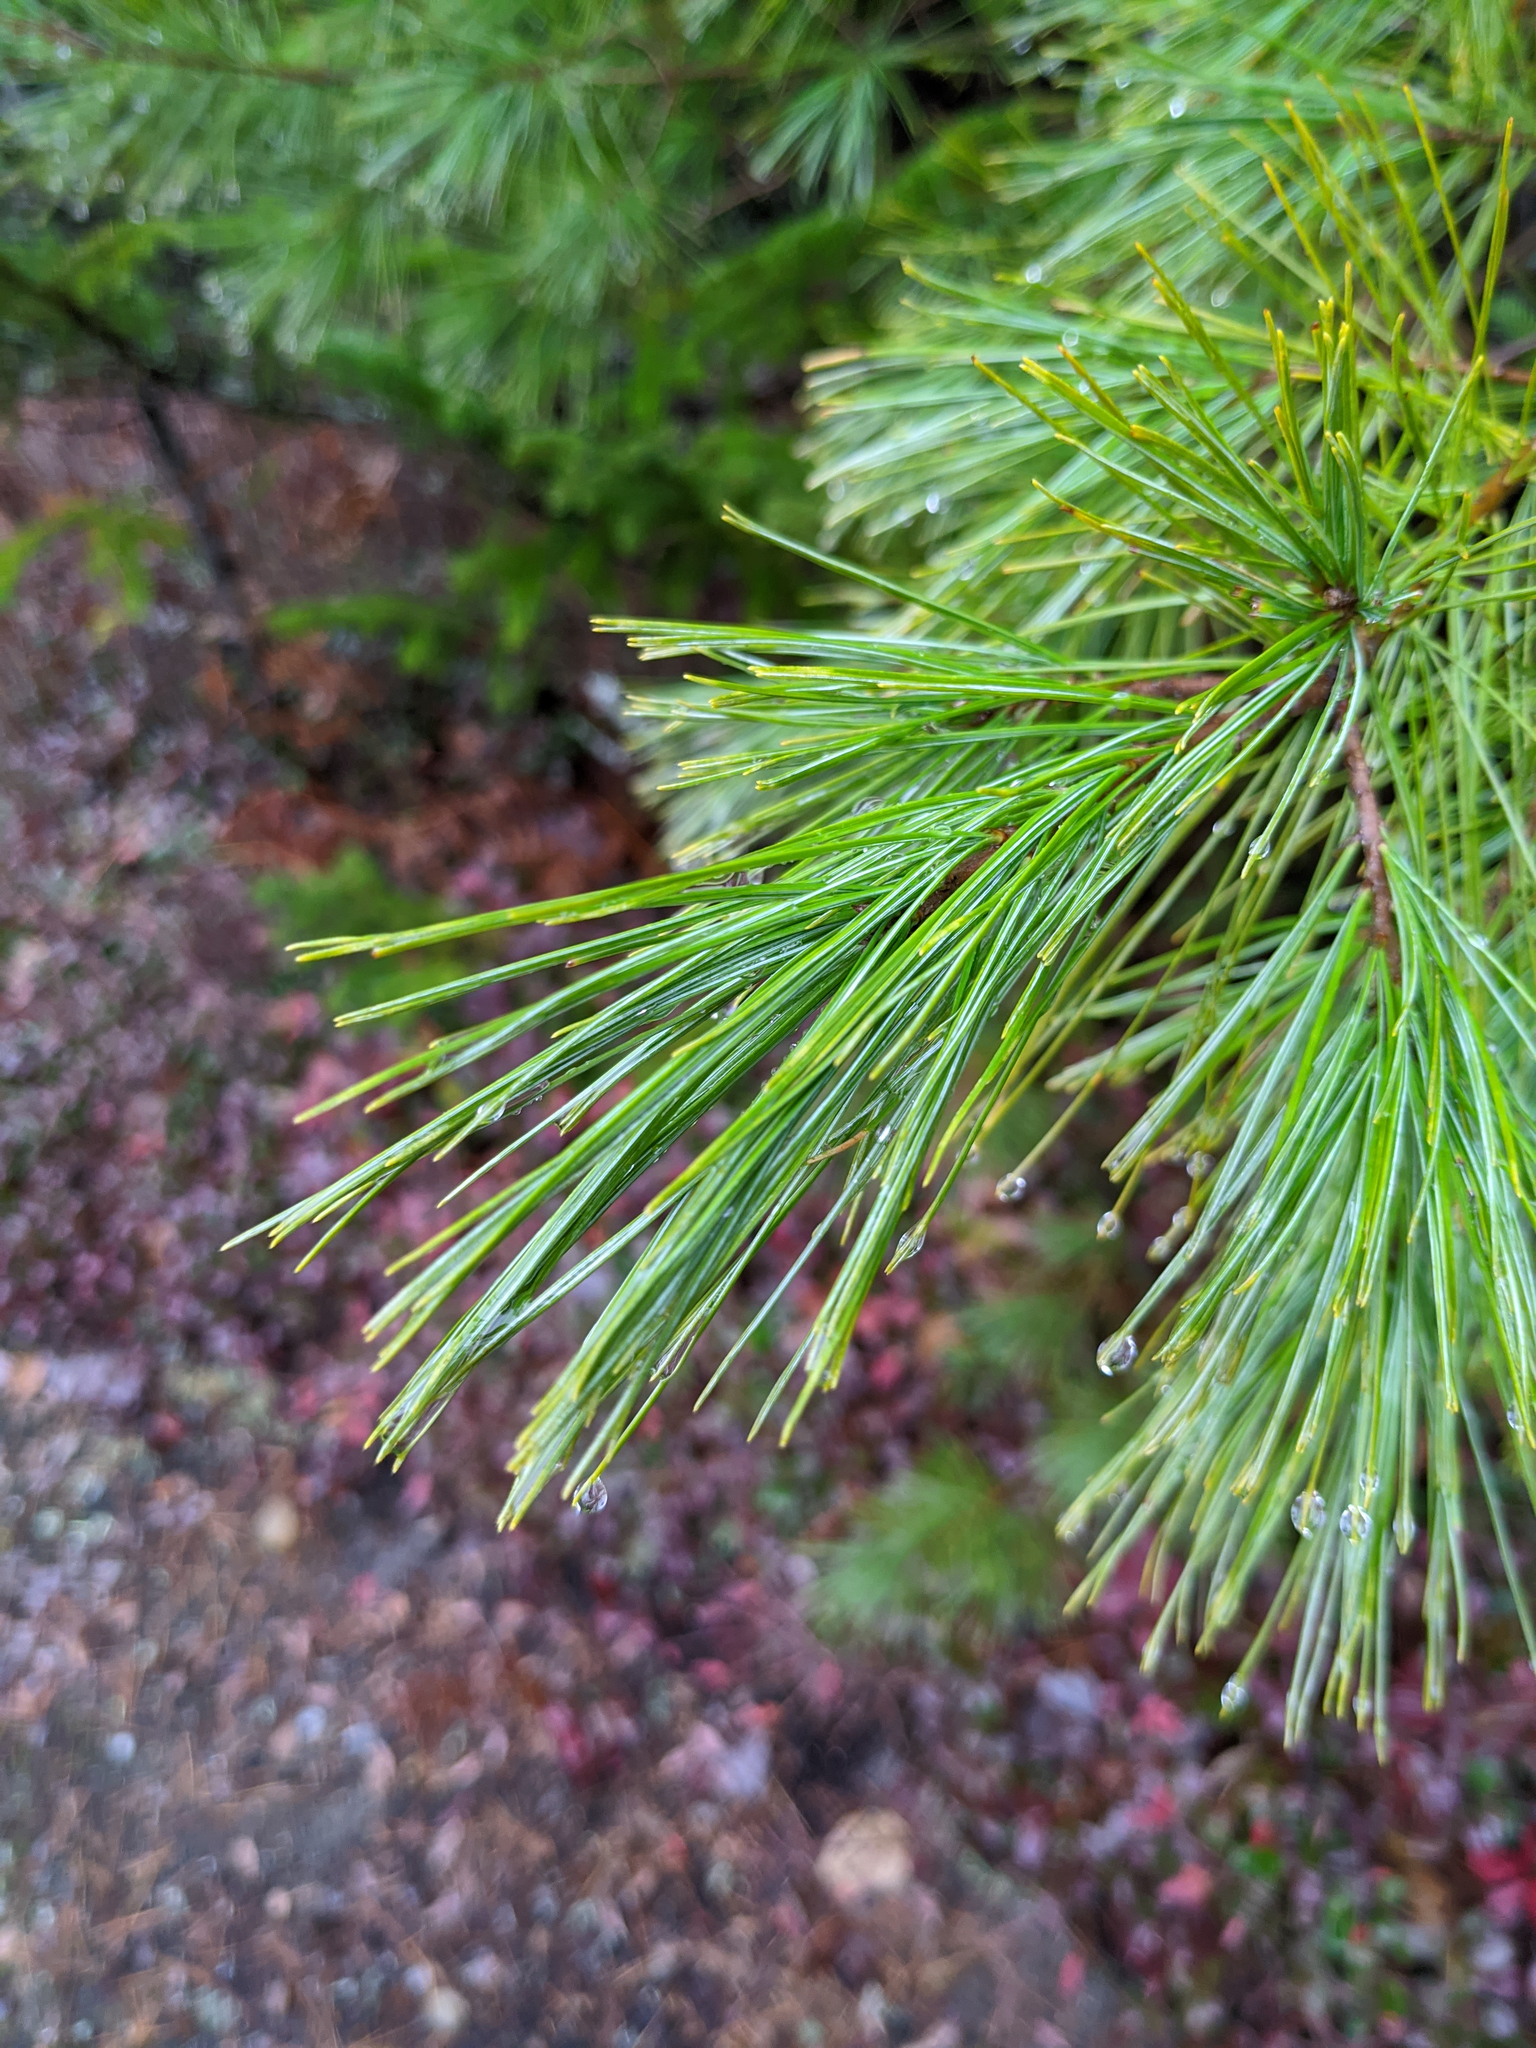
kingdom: Plantae
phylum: Tracheophyta
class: Pinopsida
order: Pinales
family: Pinaceae
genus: Pinus
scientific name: Pinus strobus
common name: Weymouth pine
